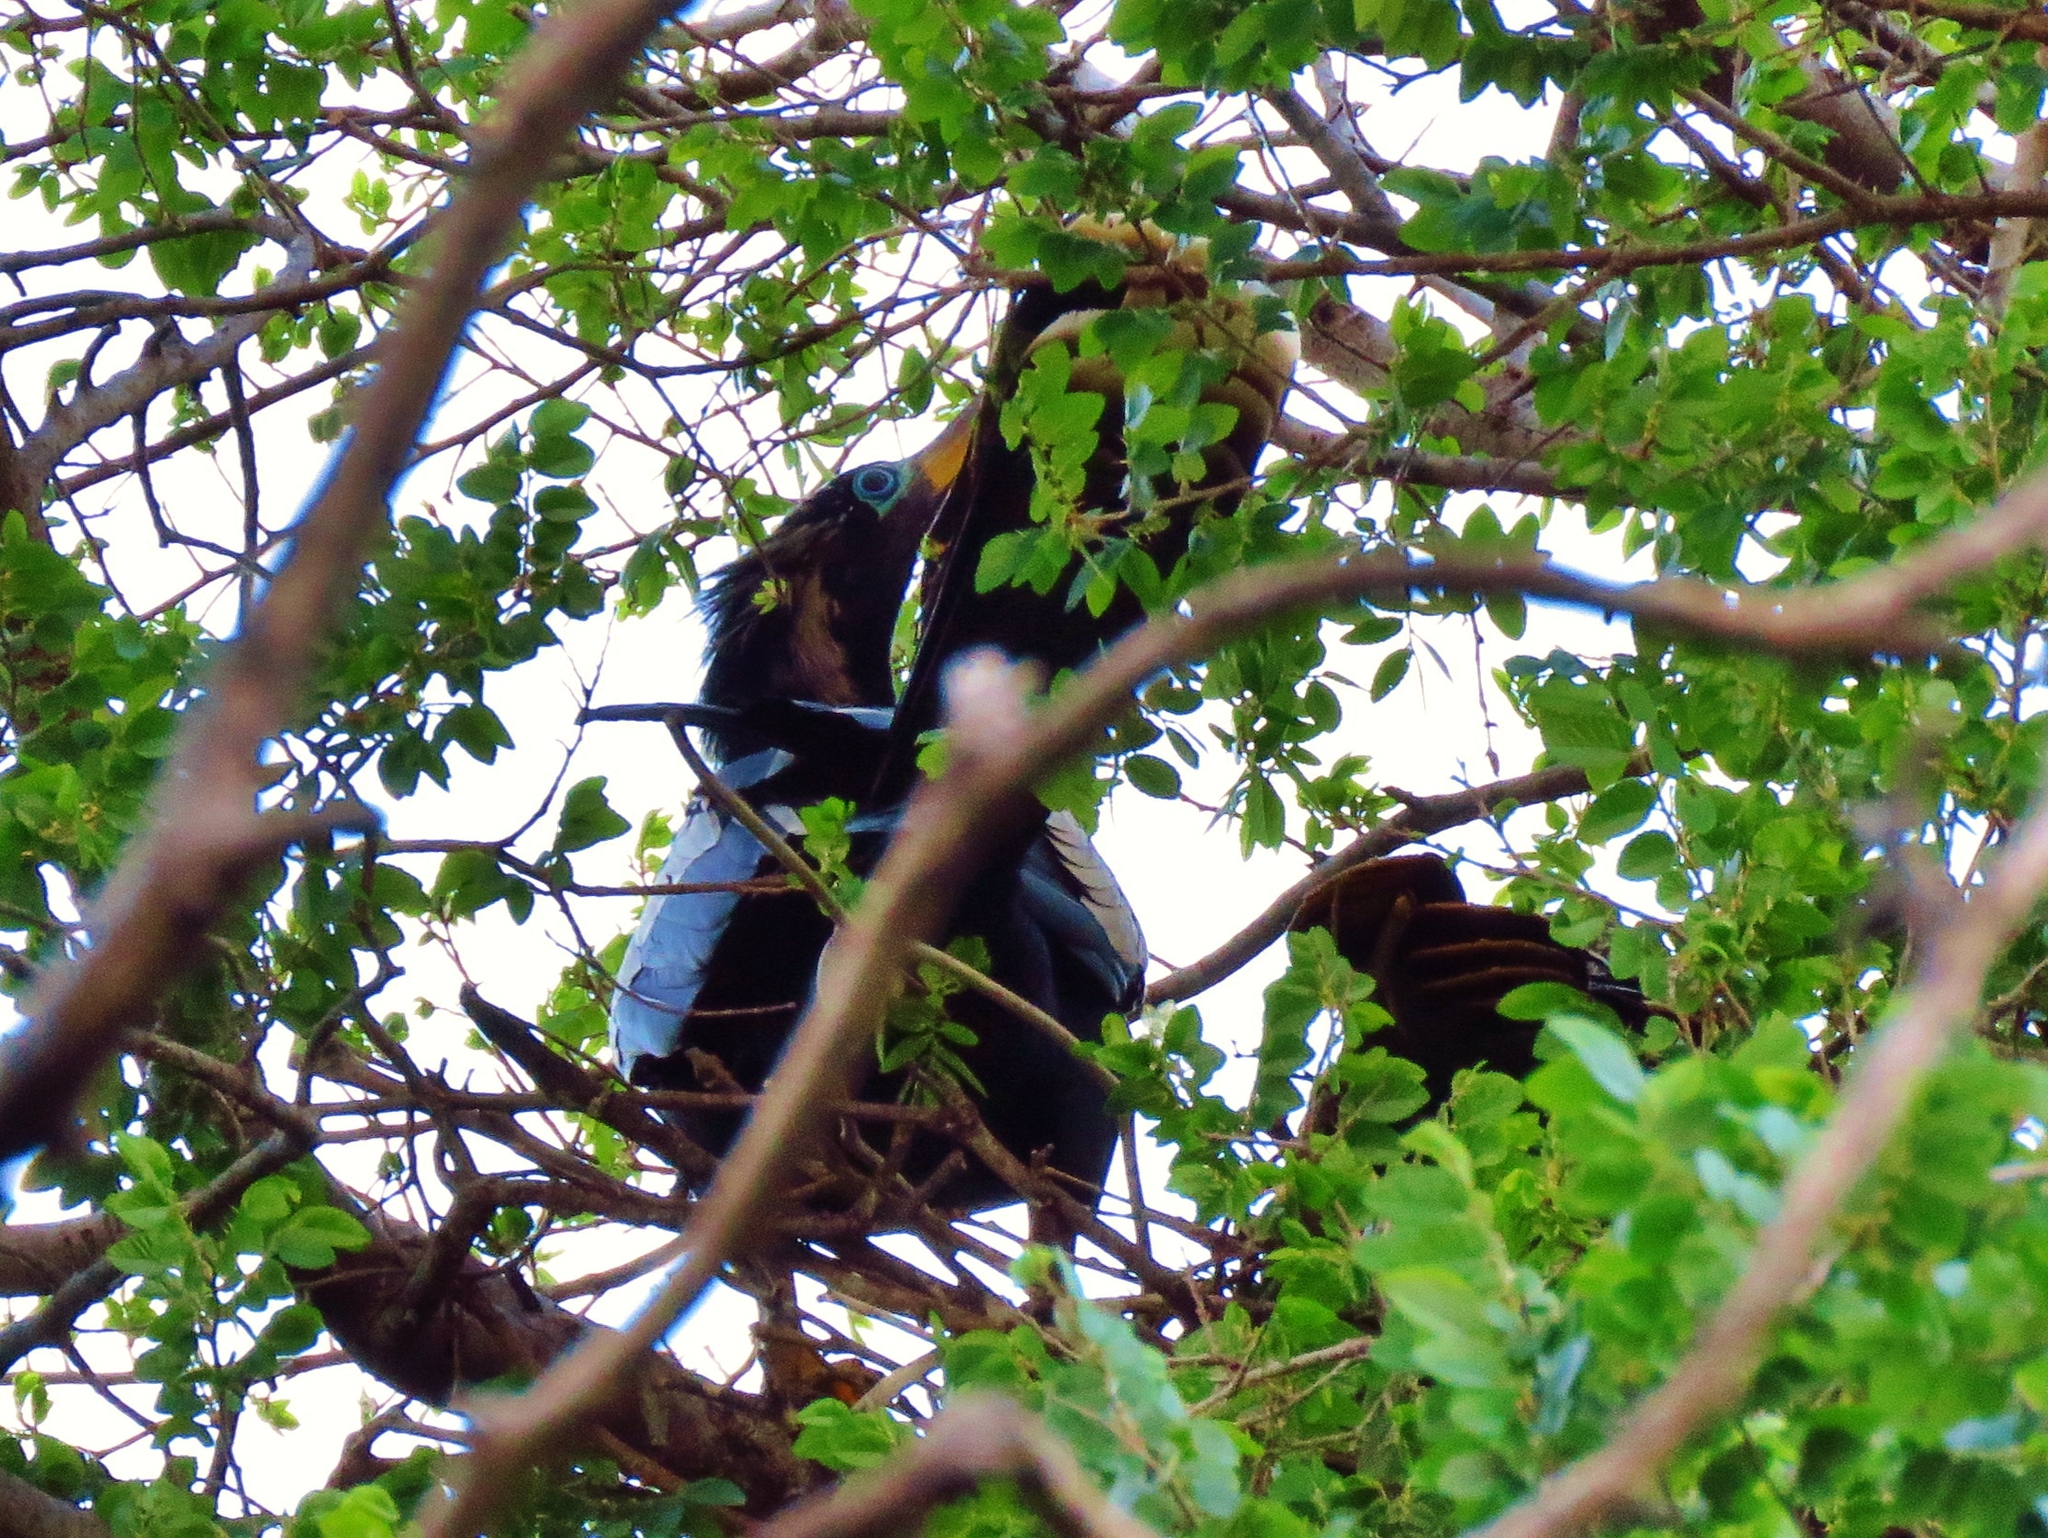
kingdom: Animalia
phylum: Chordata
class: Aves
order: Suliformes
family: Anhingidae
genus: Anhinga
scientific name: Anhinga anhinga
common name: Anhinga
